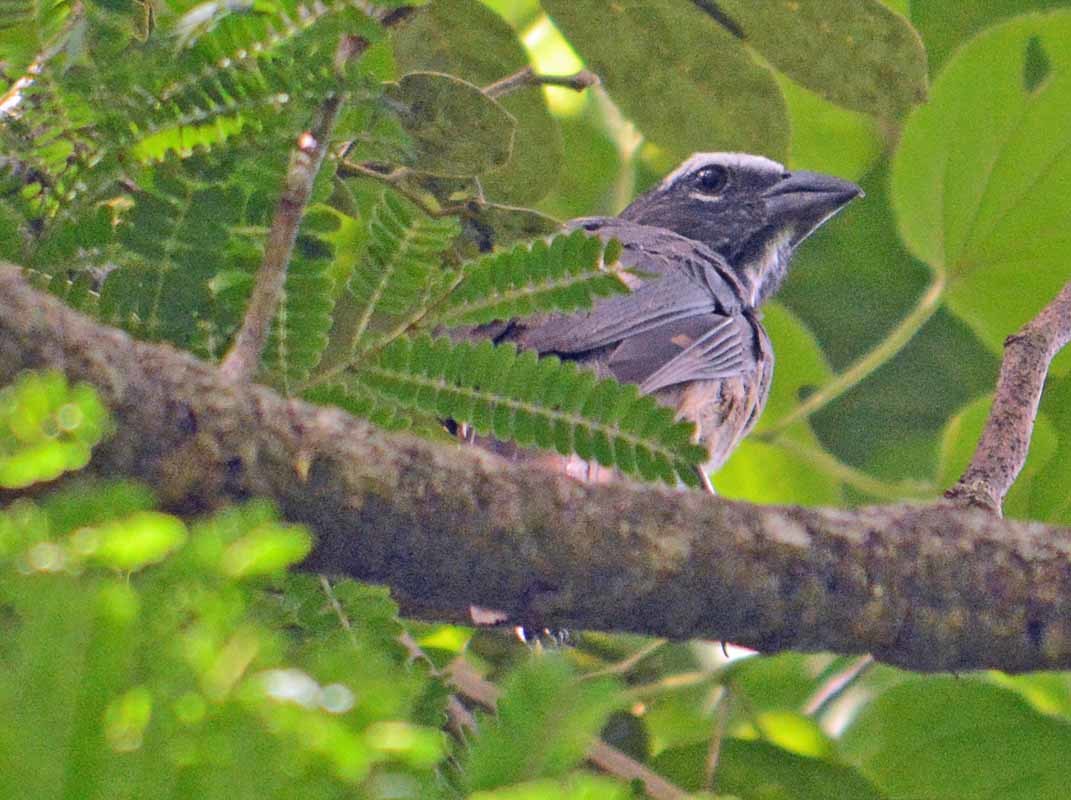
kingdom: Animalia
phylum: Chordata
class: Aves
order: Passeriformes
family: Thraupidae
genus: Saltator
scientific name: Saltator grandis
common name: Cinnamon-bellied saltator
